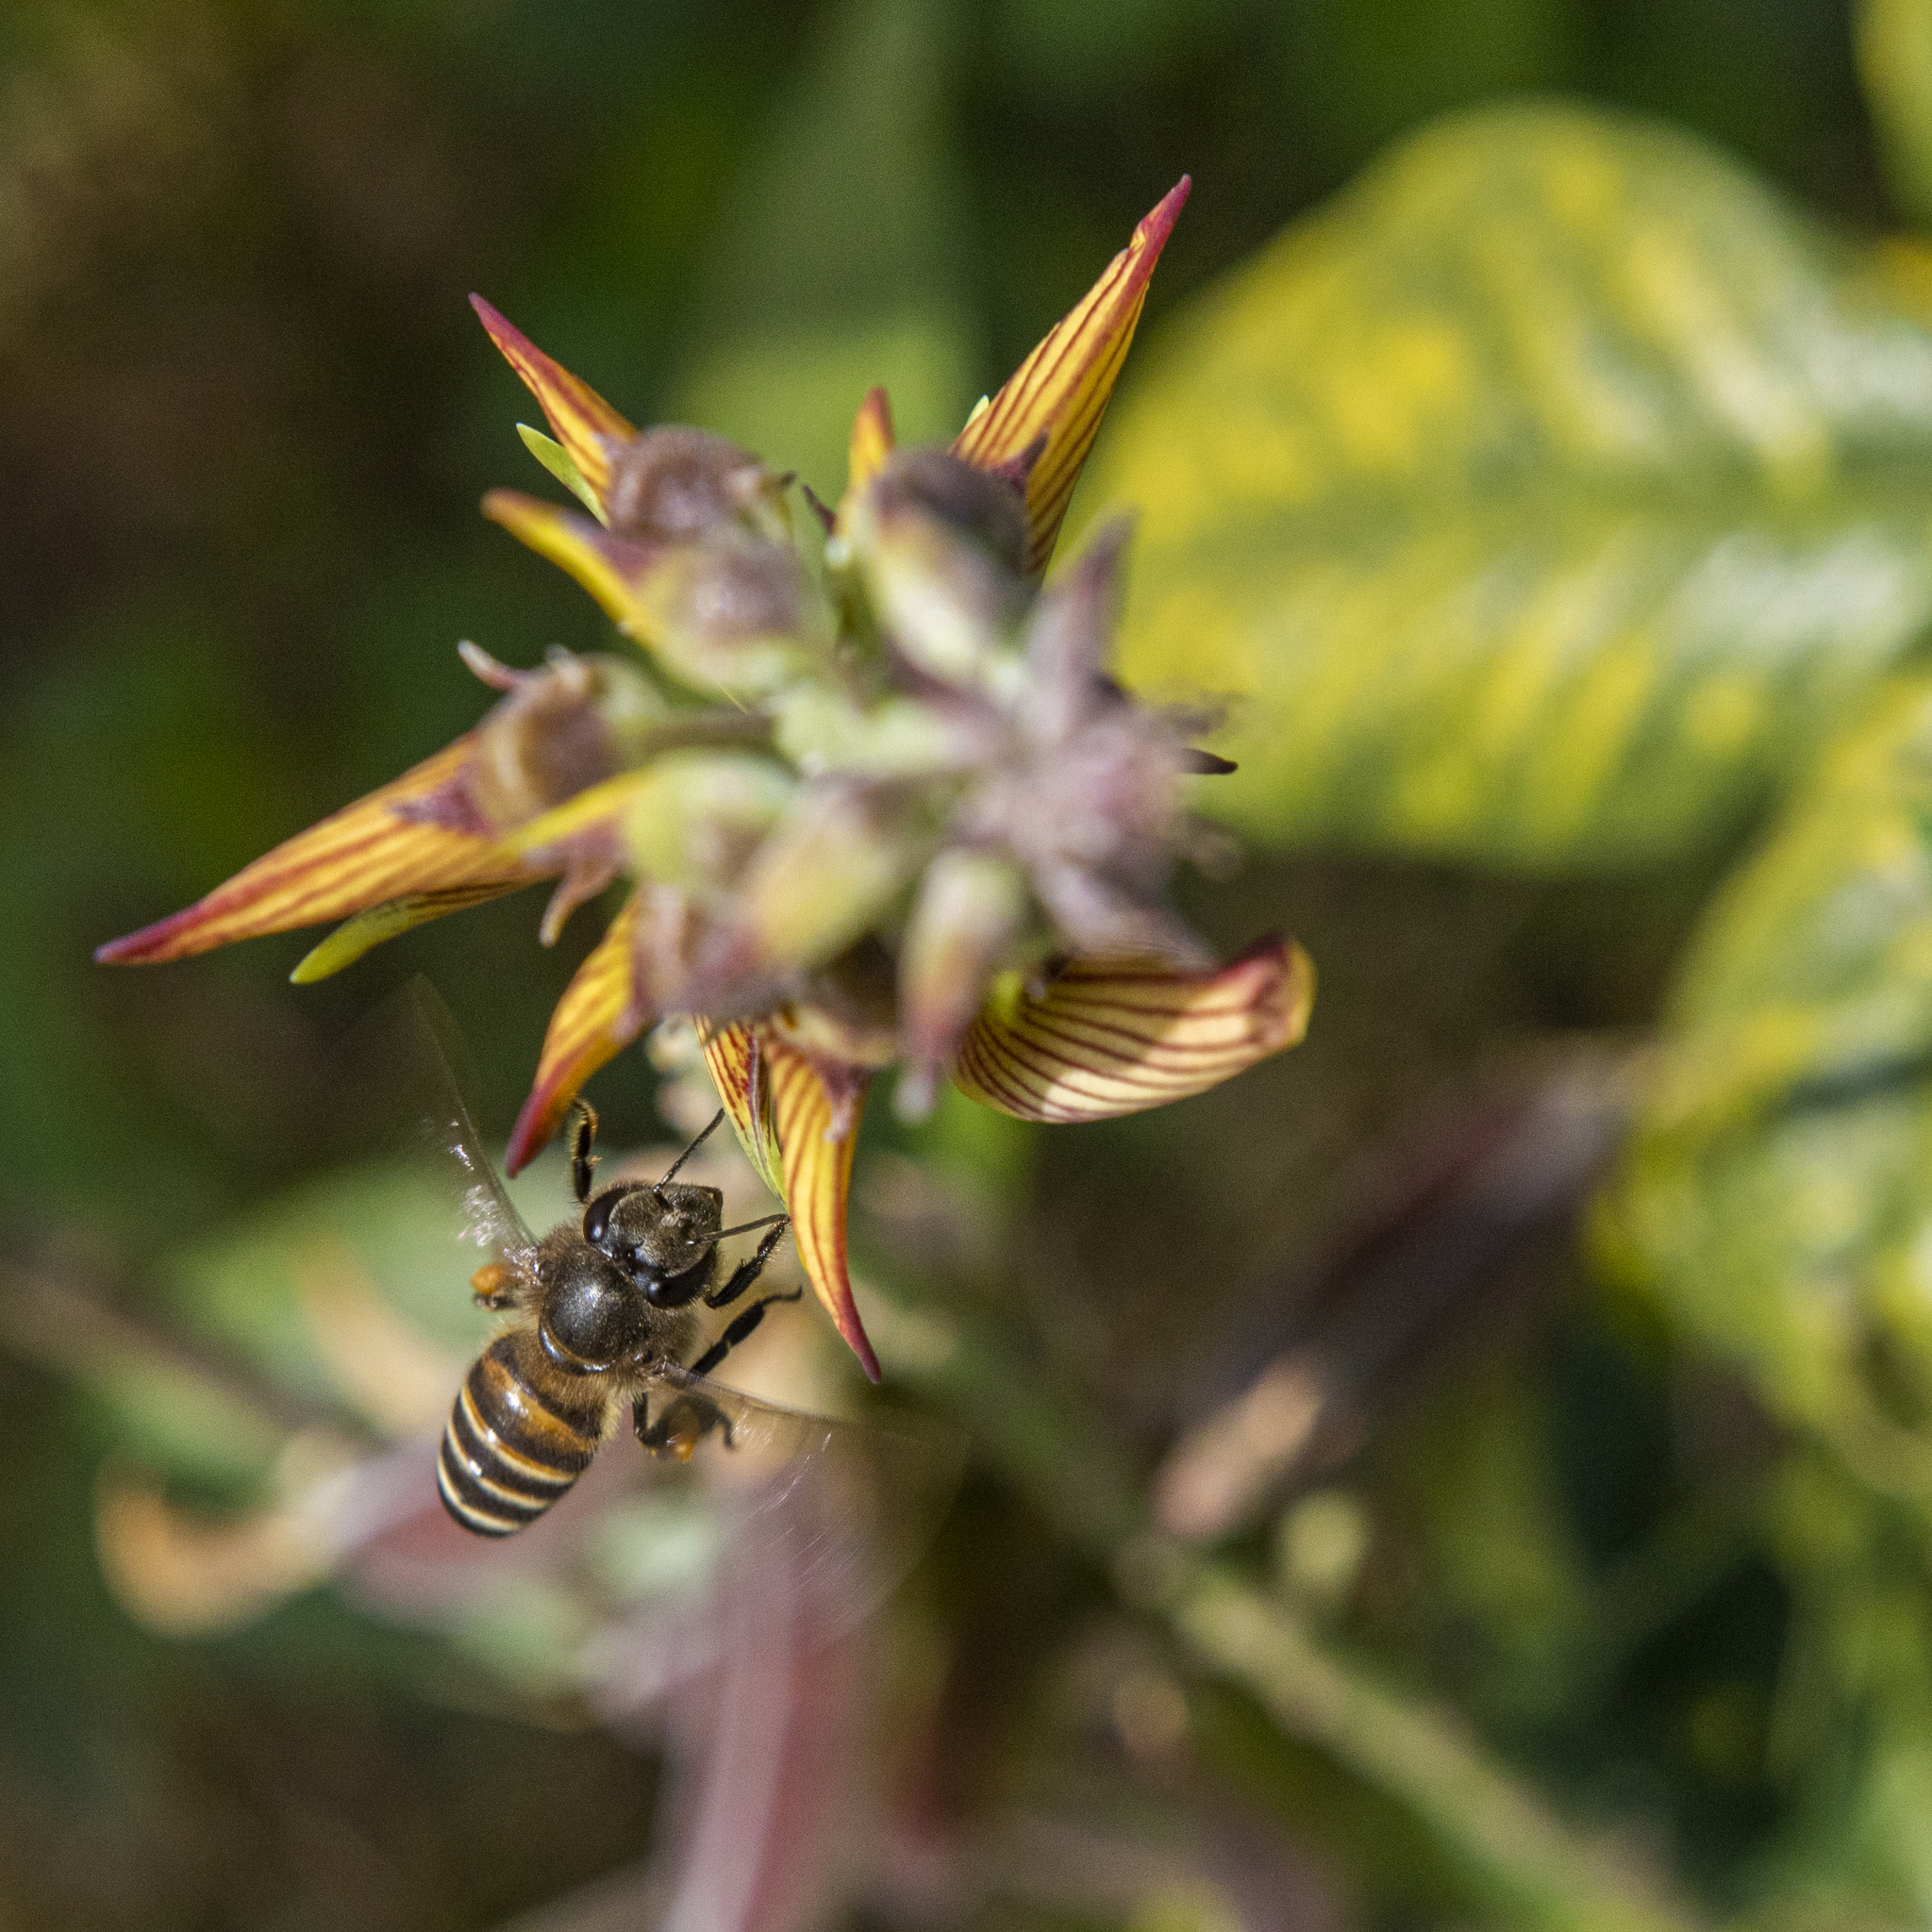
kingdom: Animalia
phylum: Arthropoda
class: Insecta
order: Hymenoptera
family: Apidae
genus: Apis
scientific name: Apis cerana
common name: Honey bee
